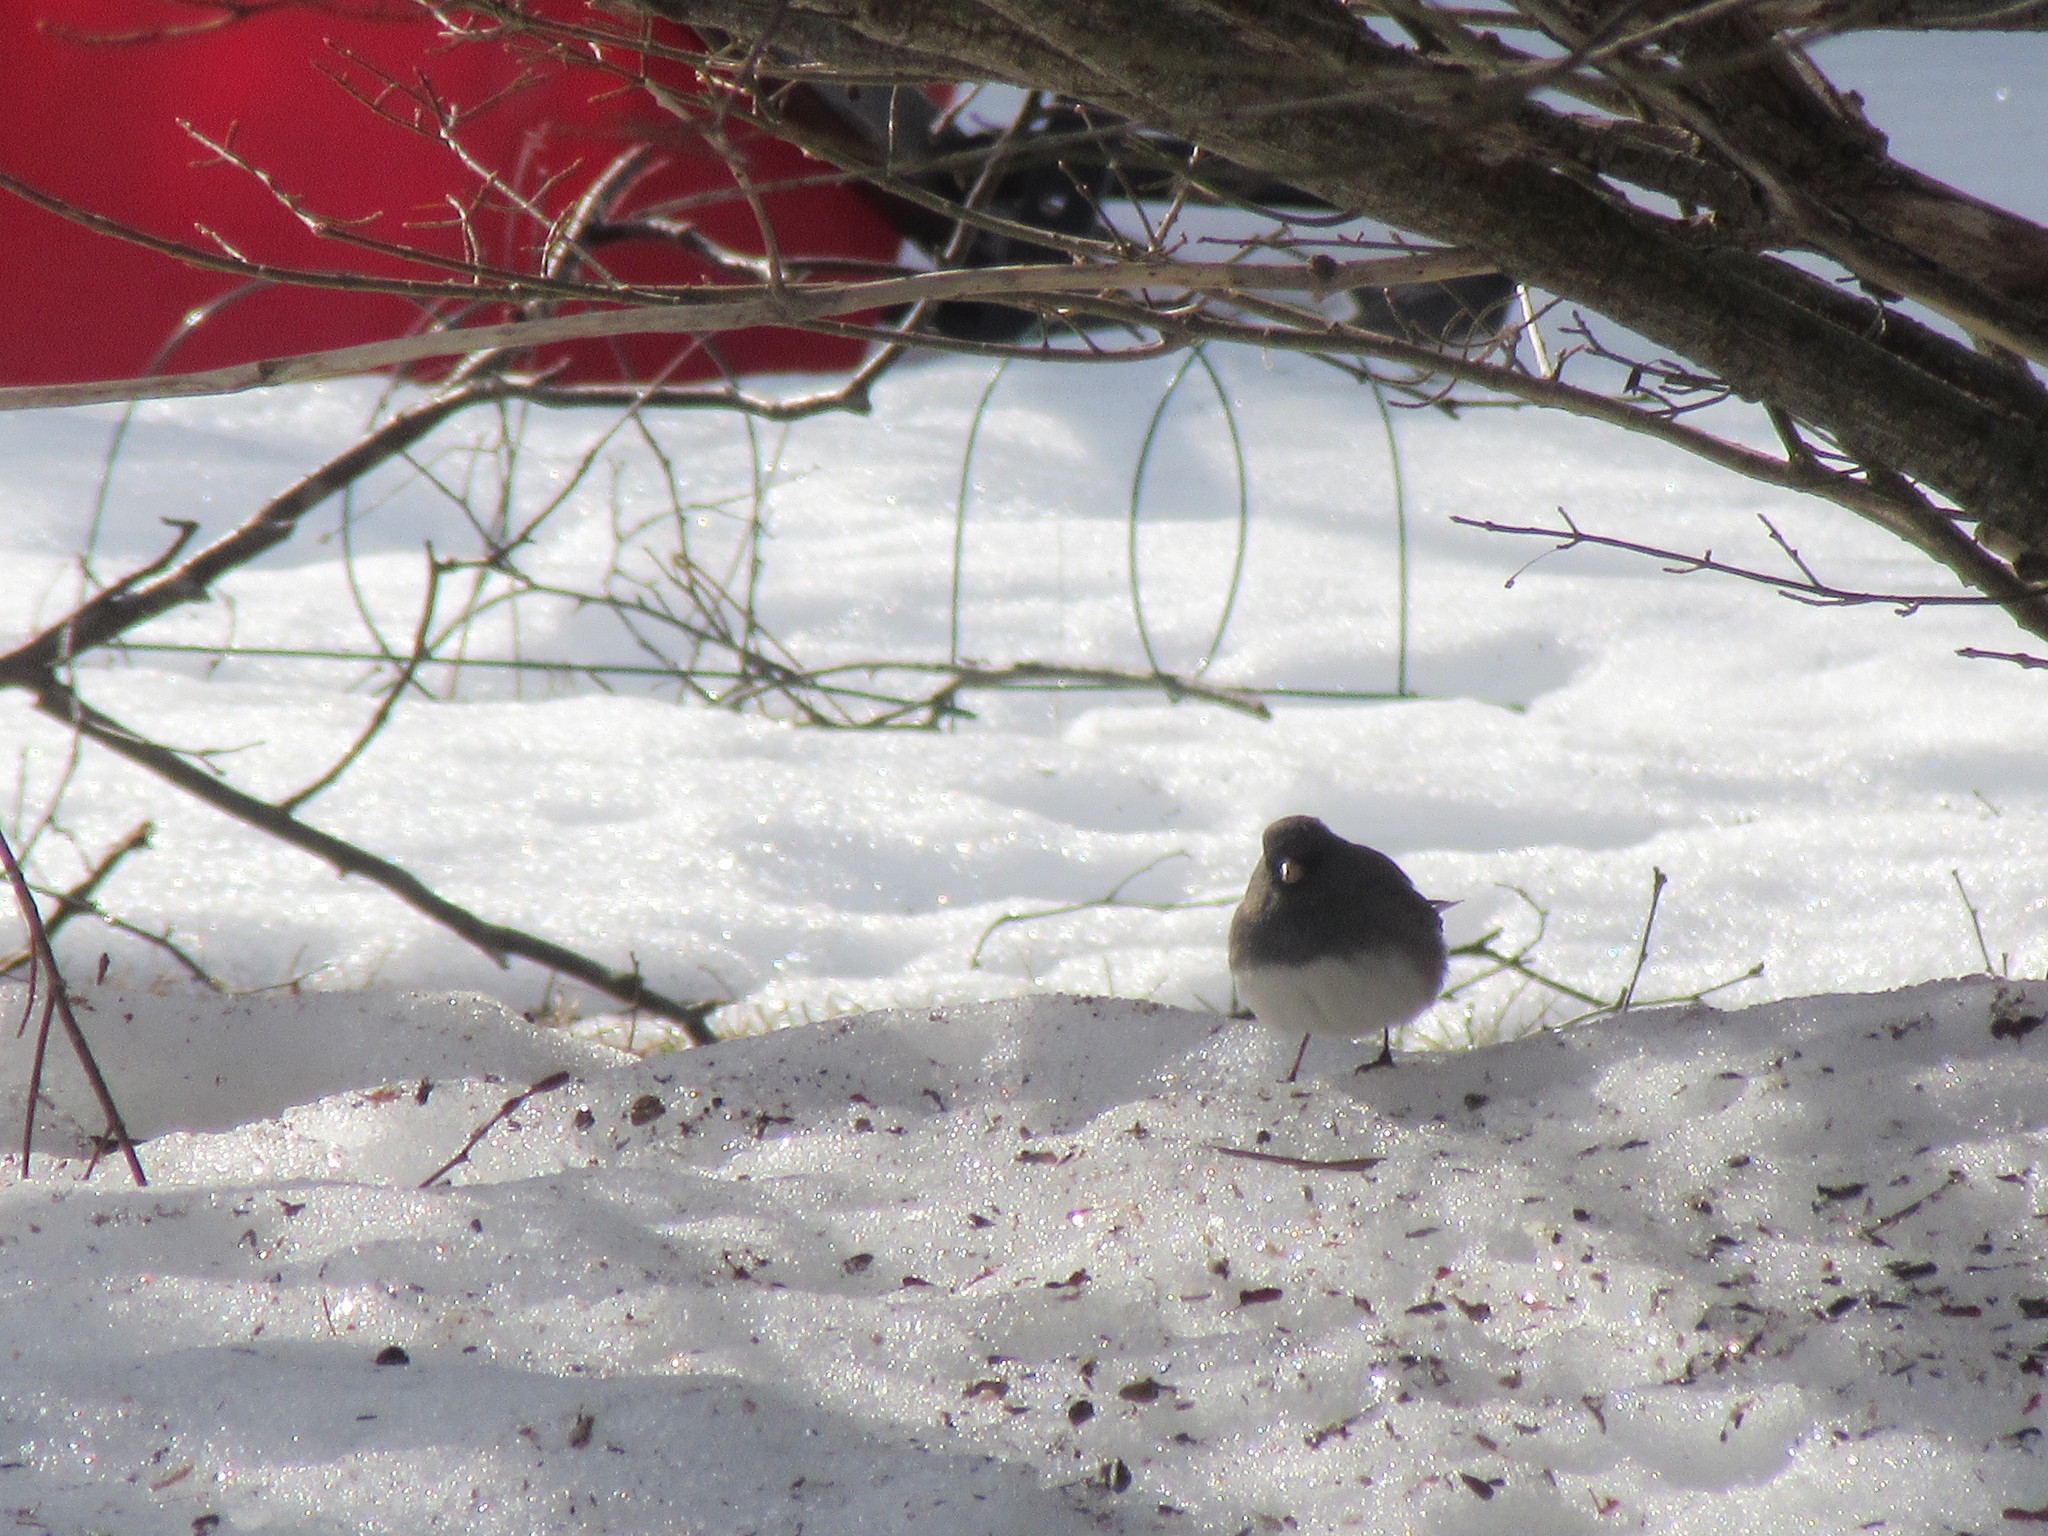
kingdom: Animalia
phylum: Chordata
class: Aves
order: Passeriformes
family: Passerellidae
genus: Junco
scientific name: Junco hyemalis
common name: Dark-eyed junco
